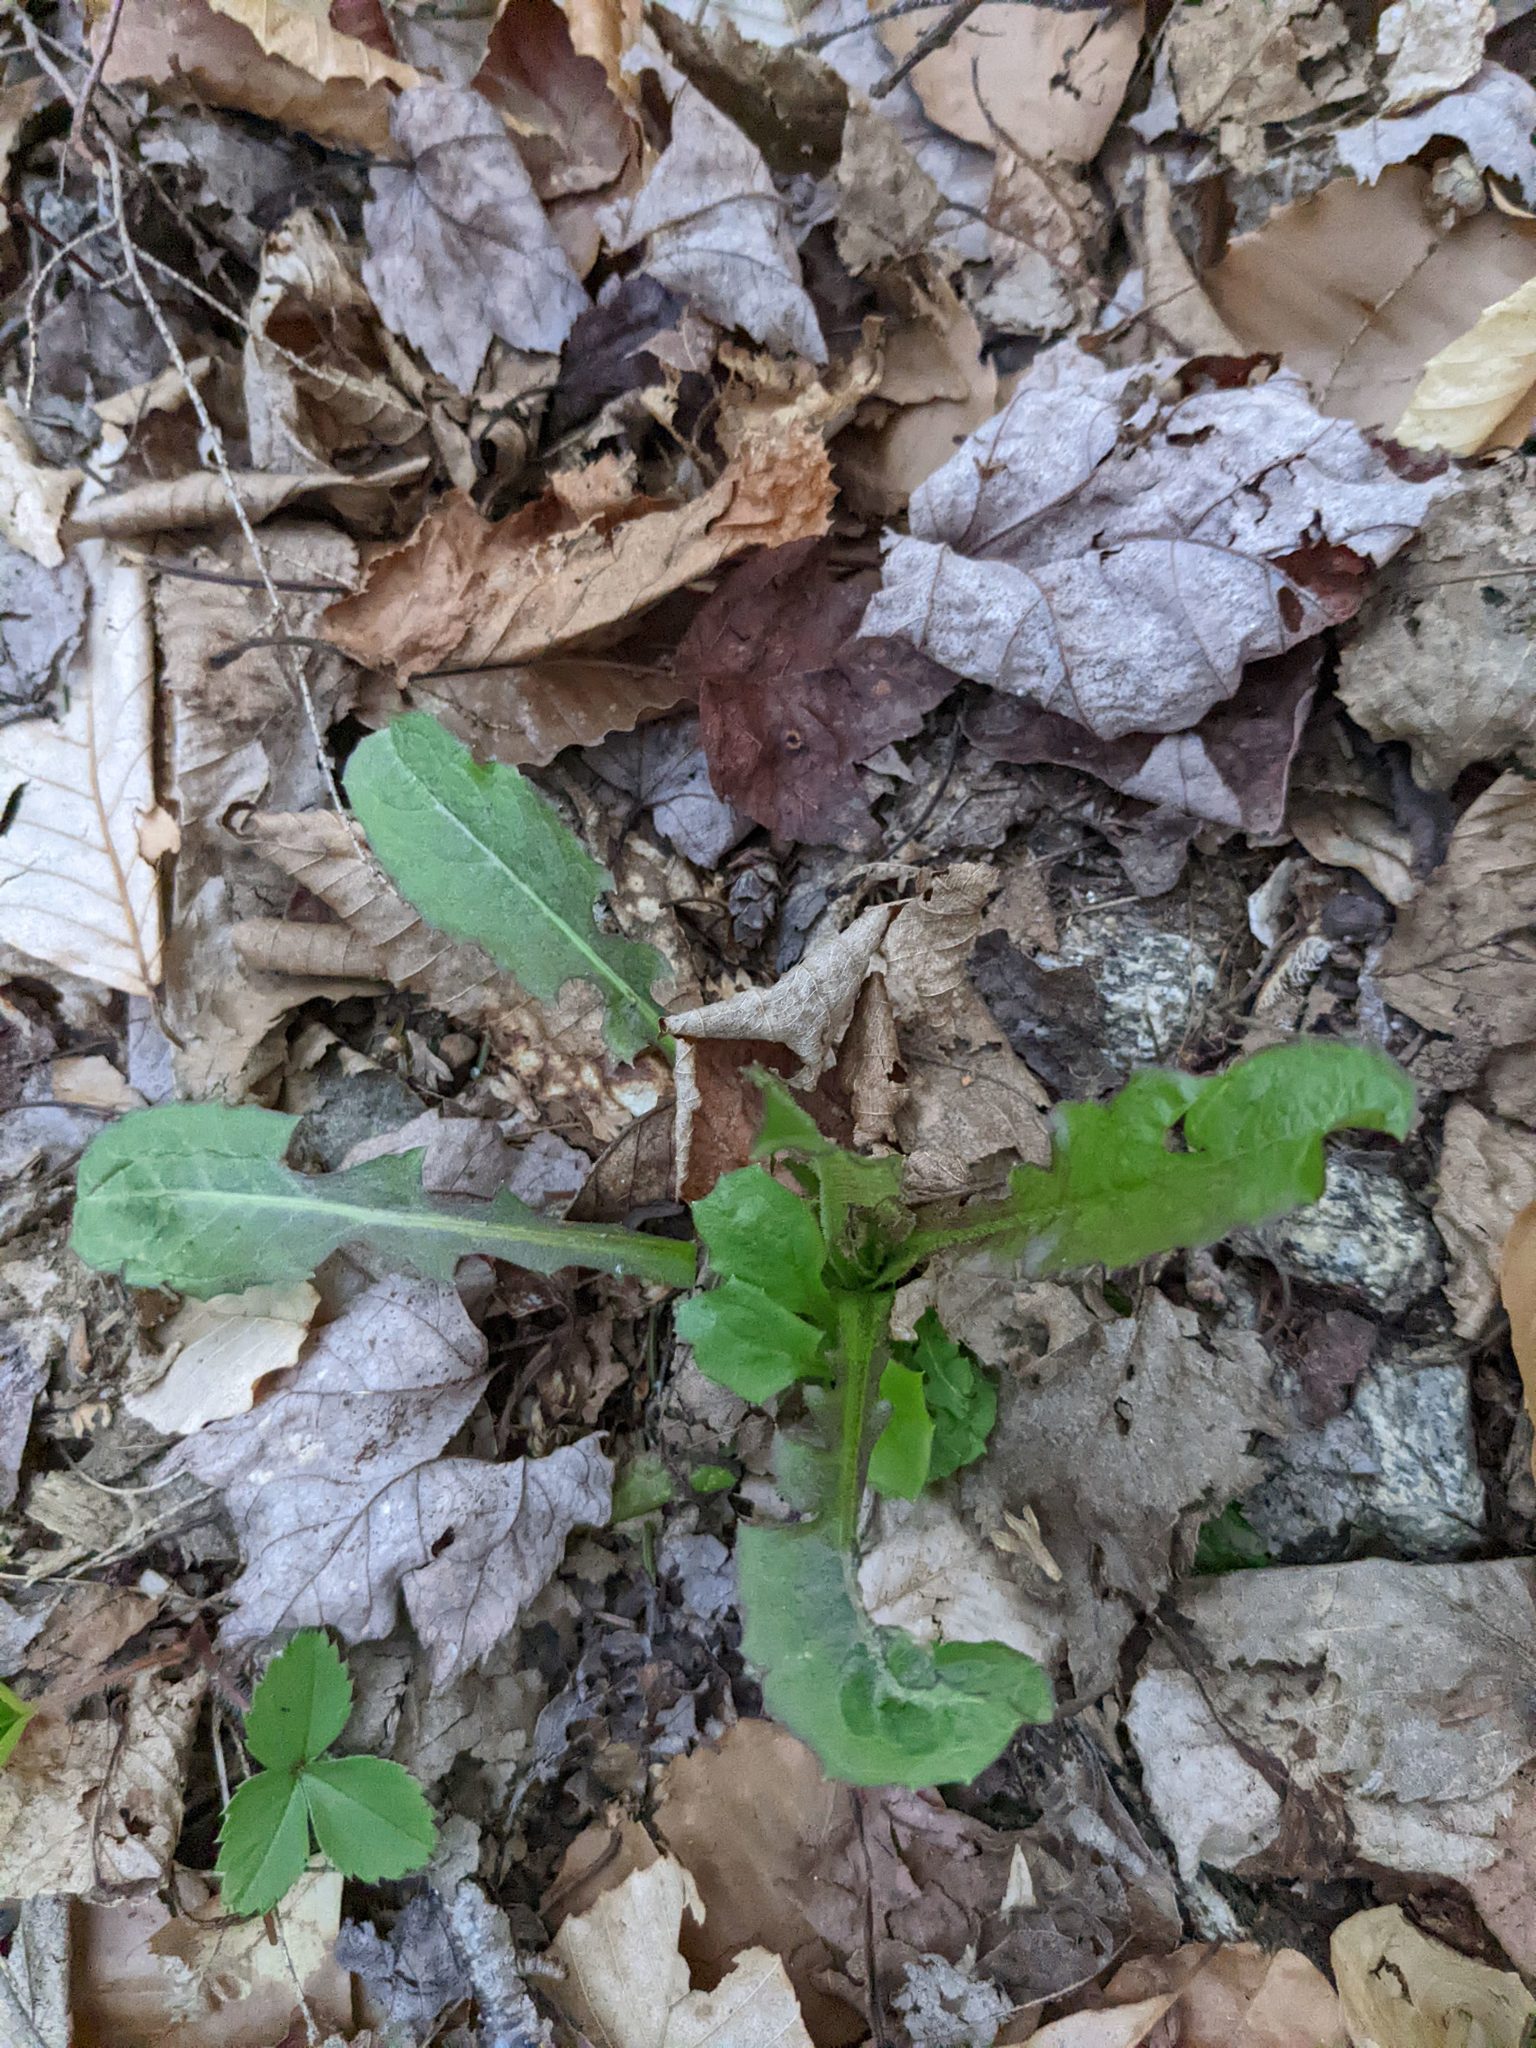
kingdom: Plantae
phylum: Tracheophyta
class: Magnoliopsida
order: Asterales
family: Asteraceae
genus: Taraxacum
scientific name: Taraxacum
